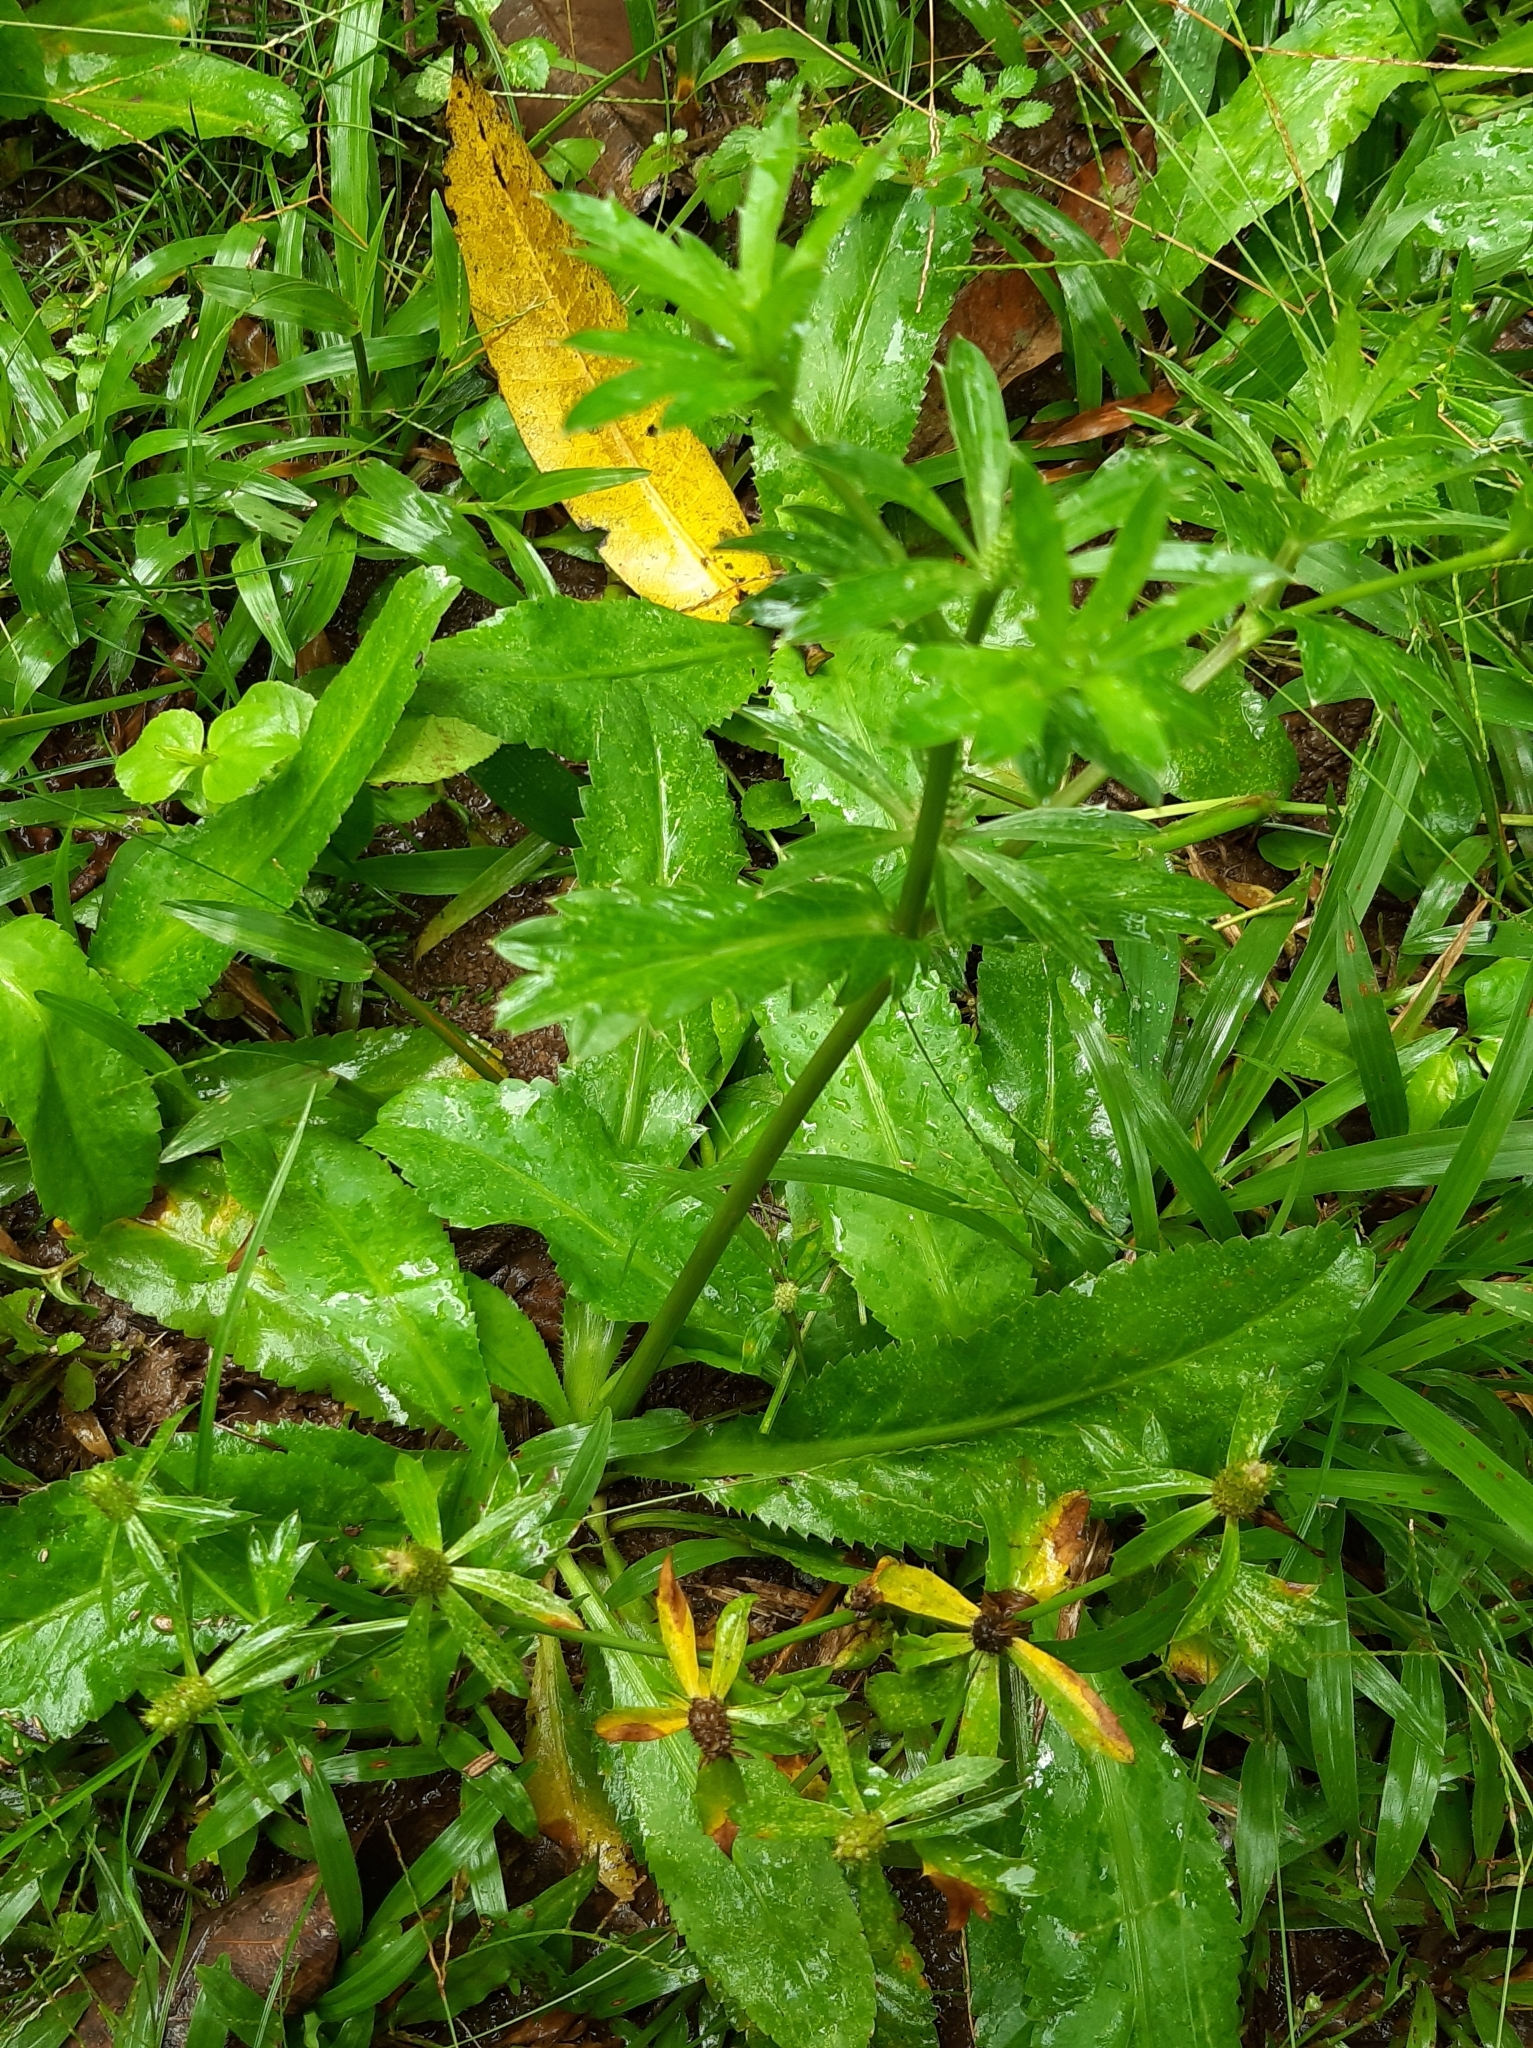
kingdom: Plantae
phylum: Tracheophyta
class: Magnoliopsida
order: Apiales
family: Apiaceae
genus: Eryngium
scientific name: Eryngium foetidum
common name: Fitweed
